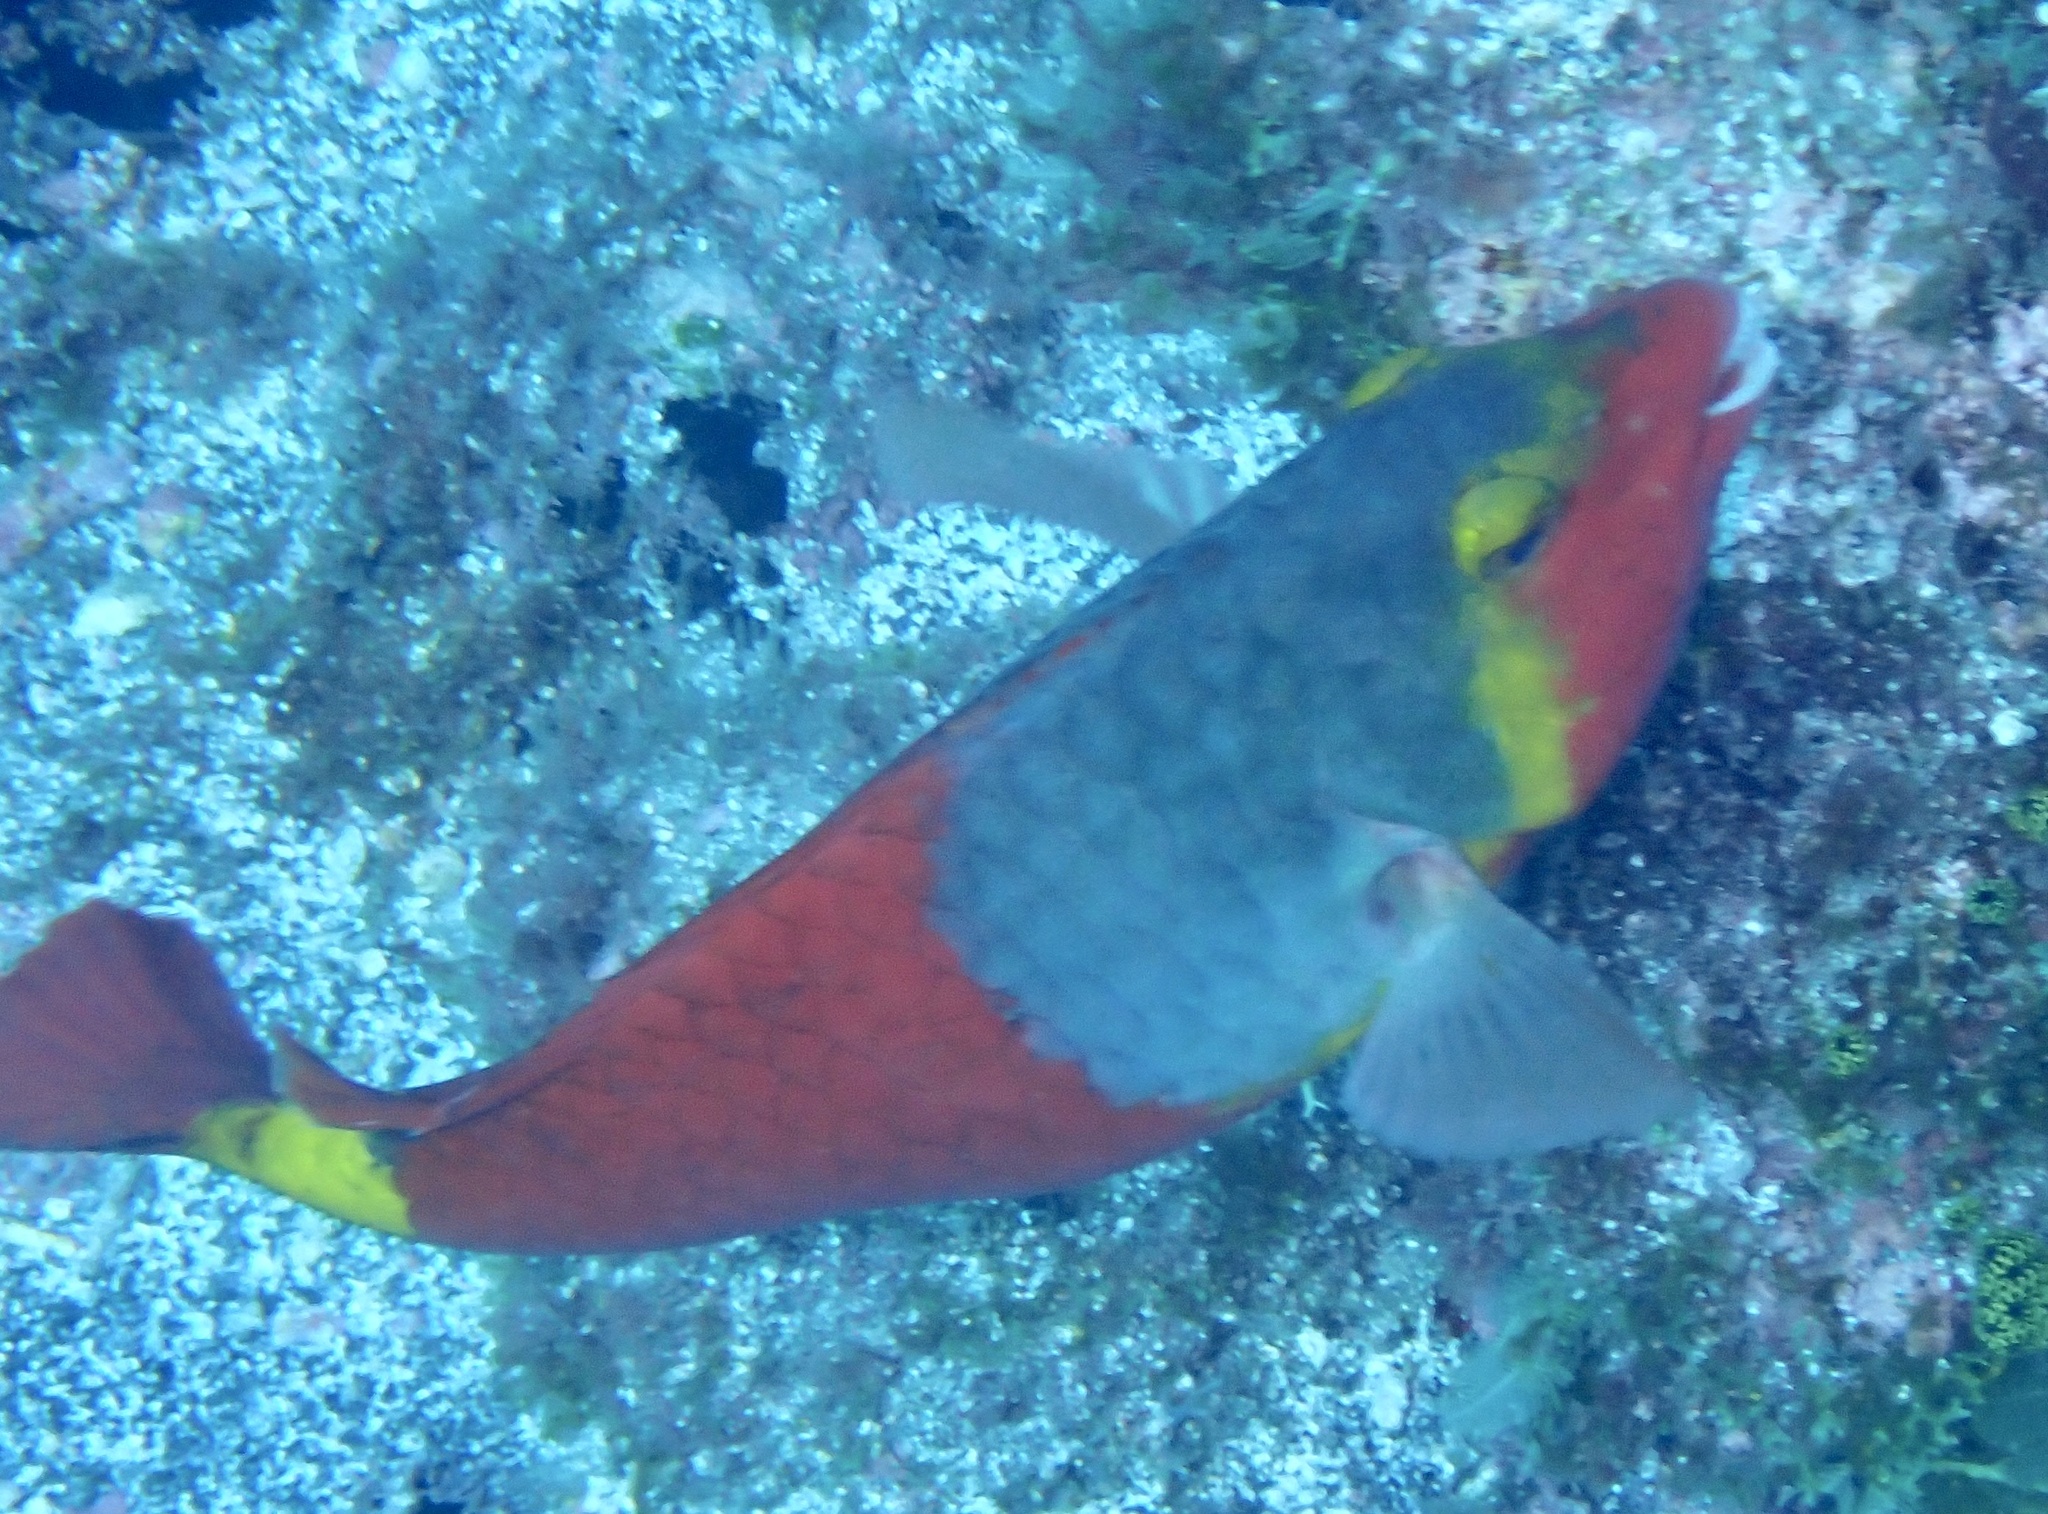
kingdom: Animalia
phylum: Chordata
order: Perciformes
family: Scaridae
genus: Sparisoma
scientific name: Sparisoma cretense
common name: Parrotfish
